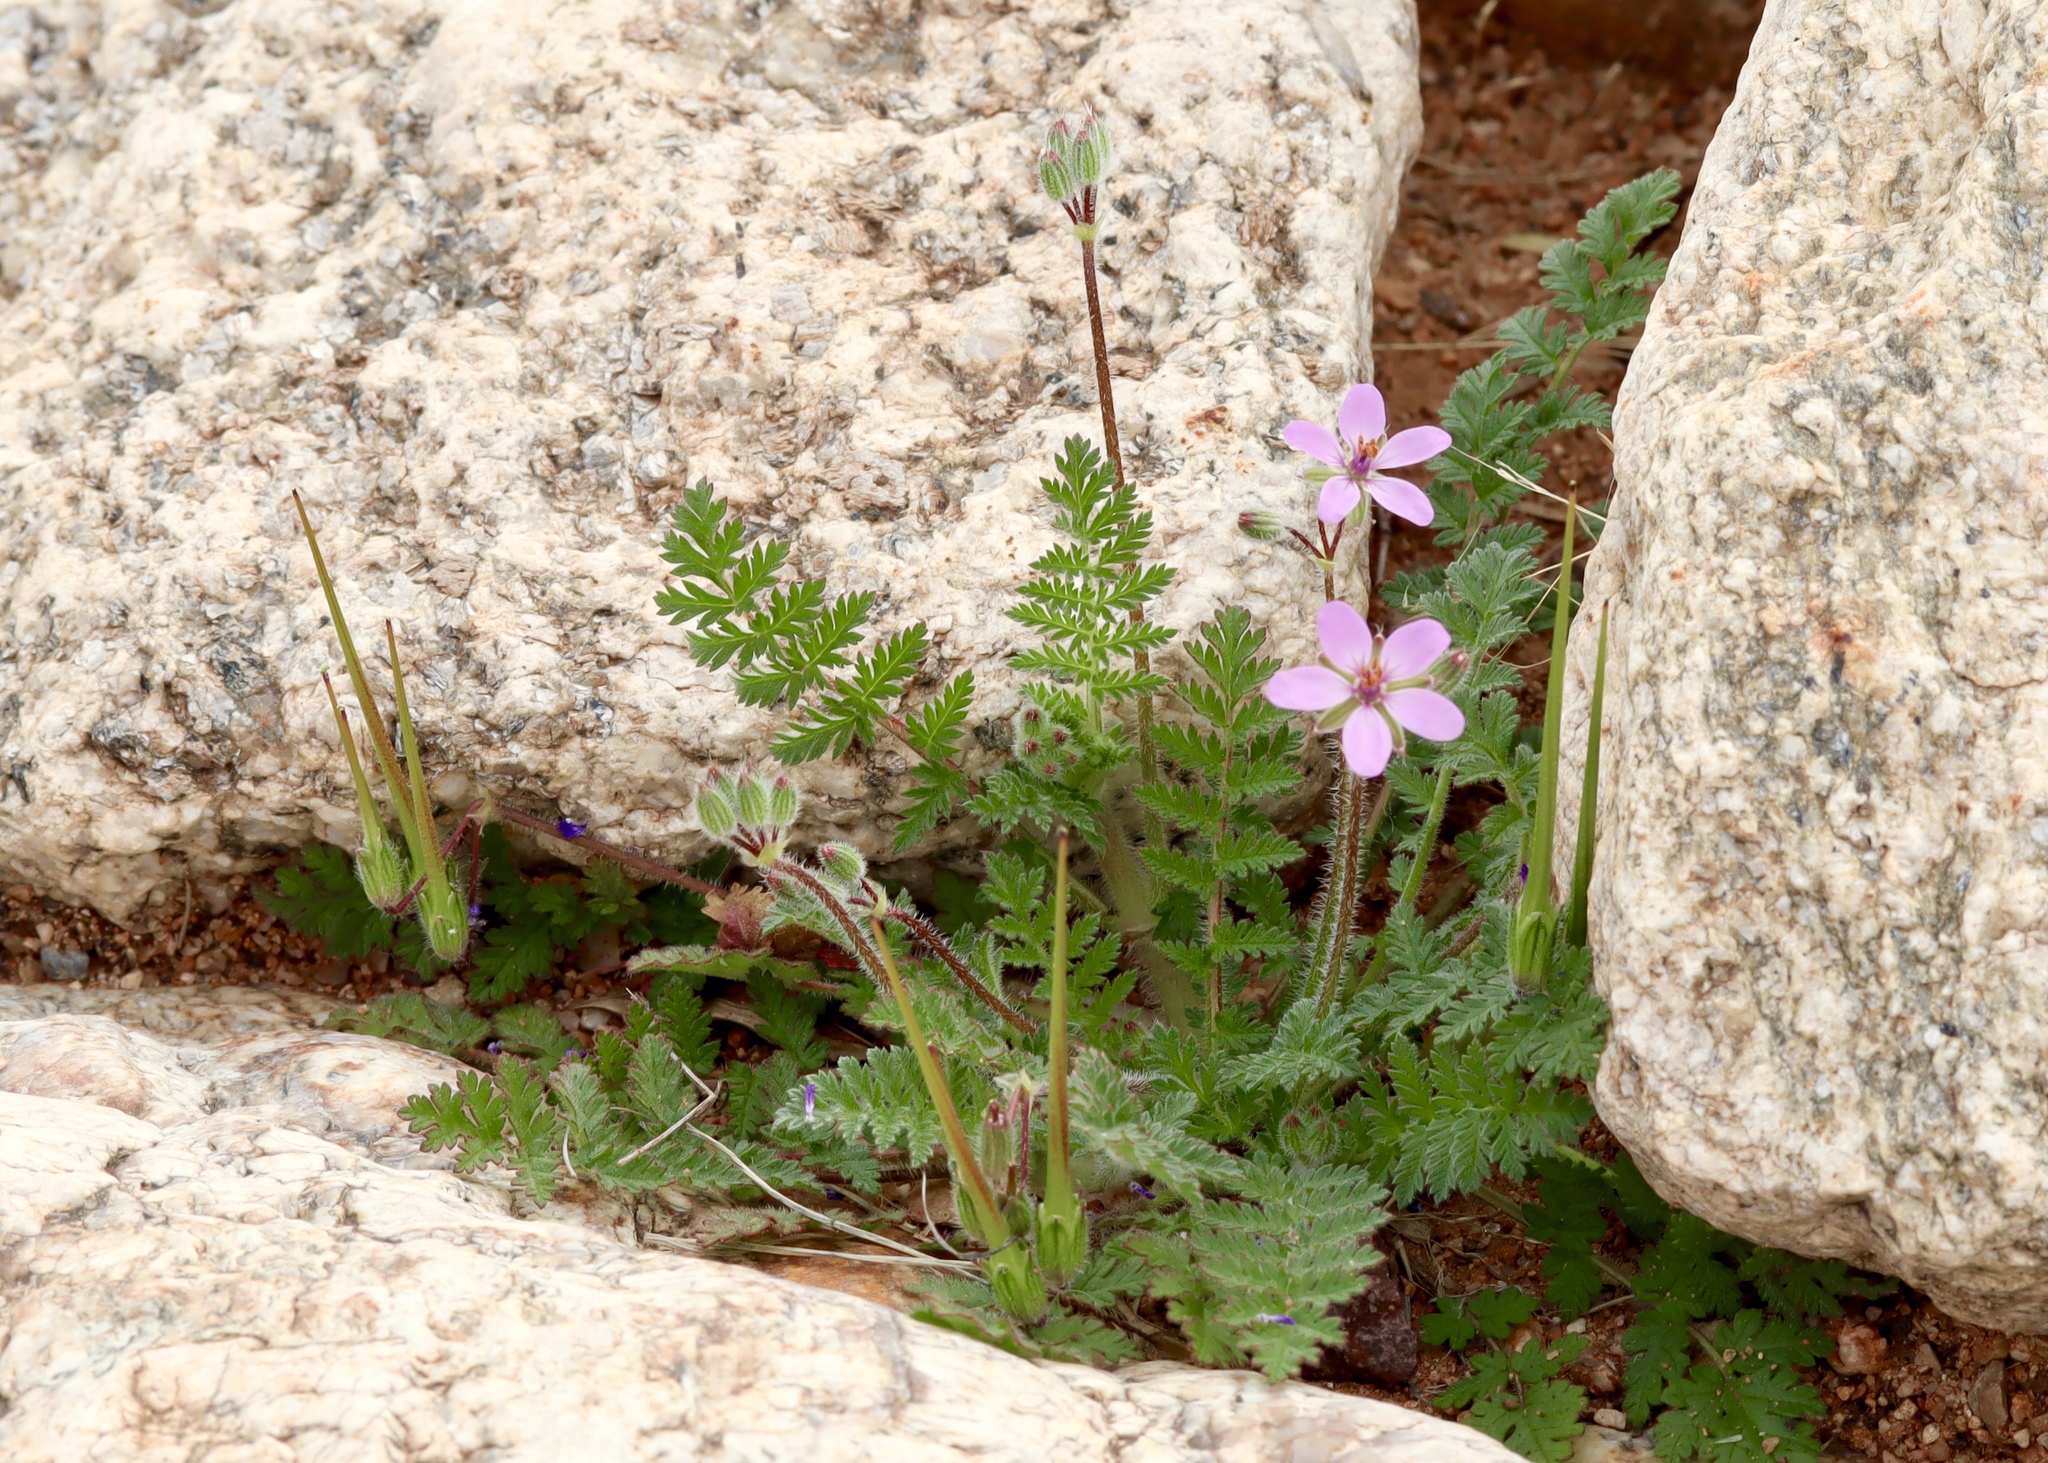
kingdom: Plantae
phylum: Tracheophyta
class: Magnoliopsida
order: Geraniales
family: Geraniaceae
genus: Erodium
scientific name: Erodium cicutarium
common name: Common stork's-bill
